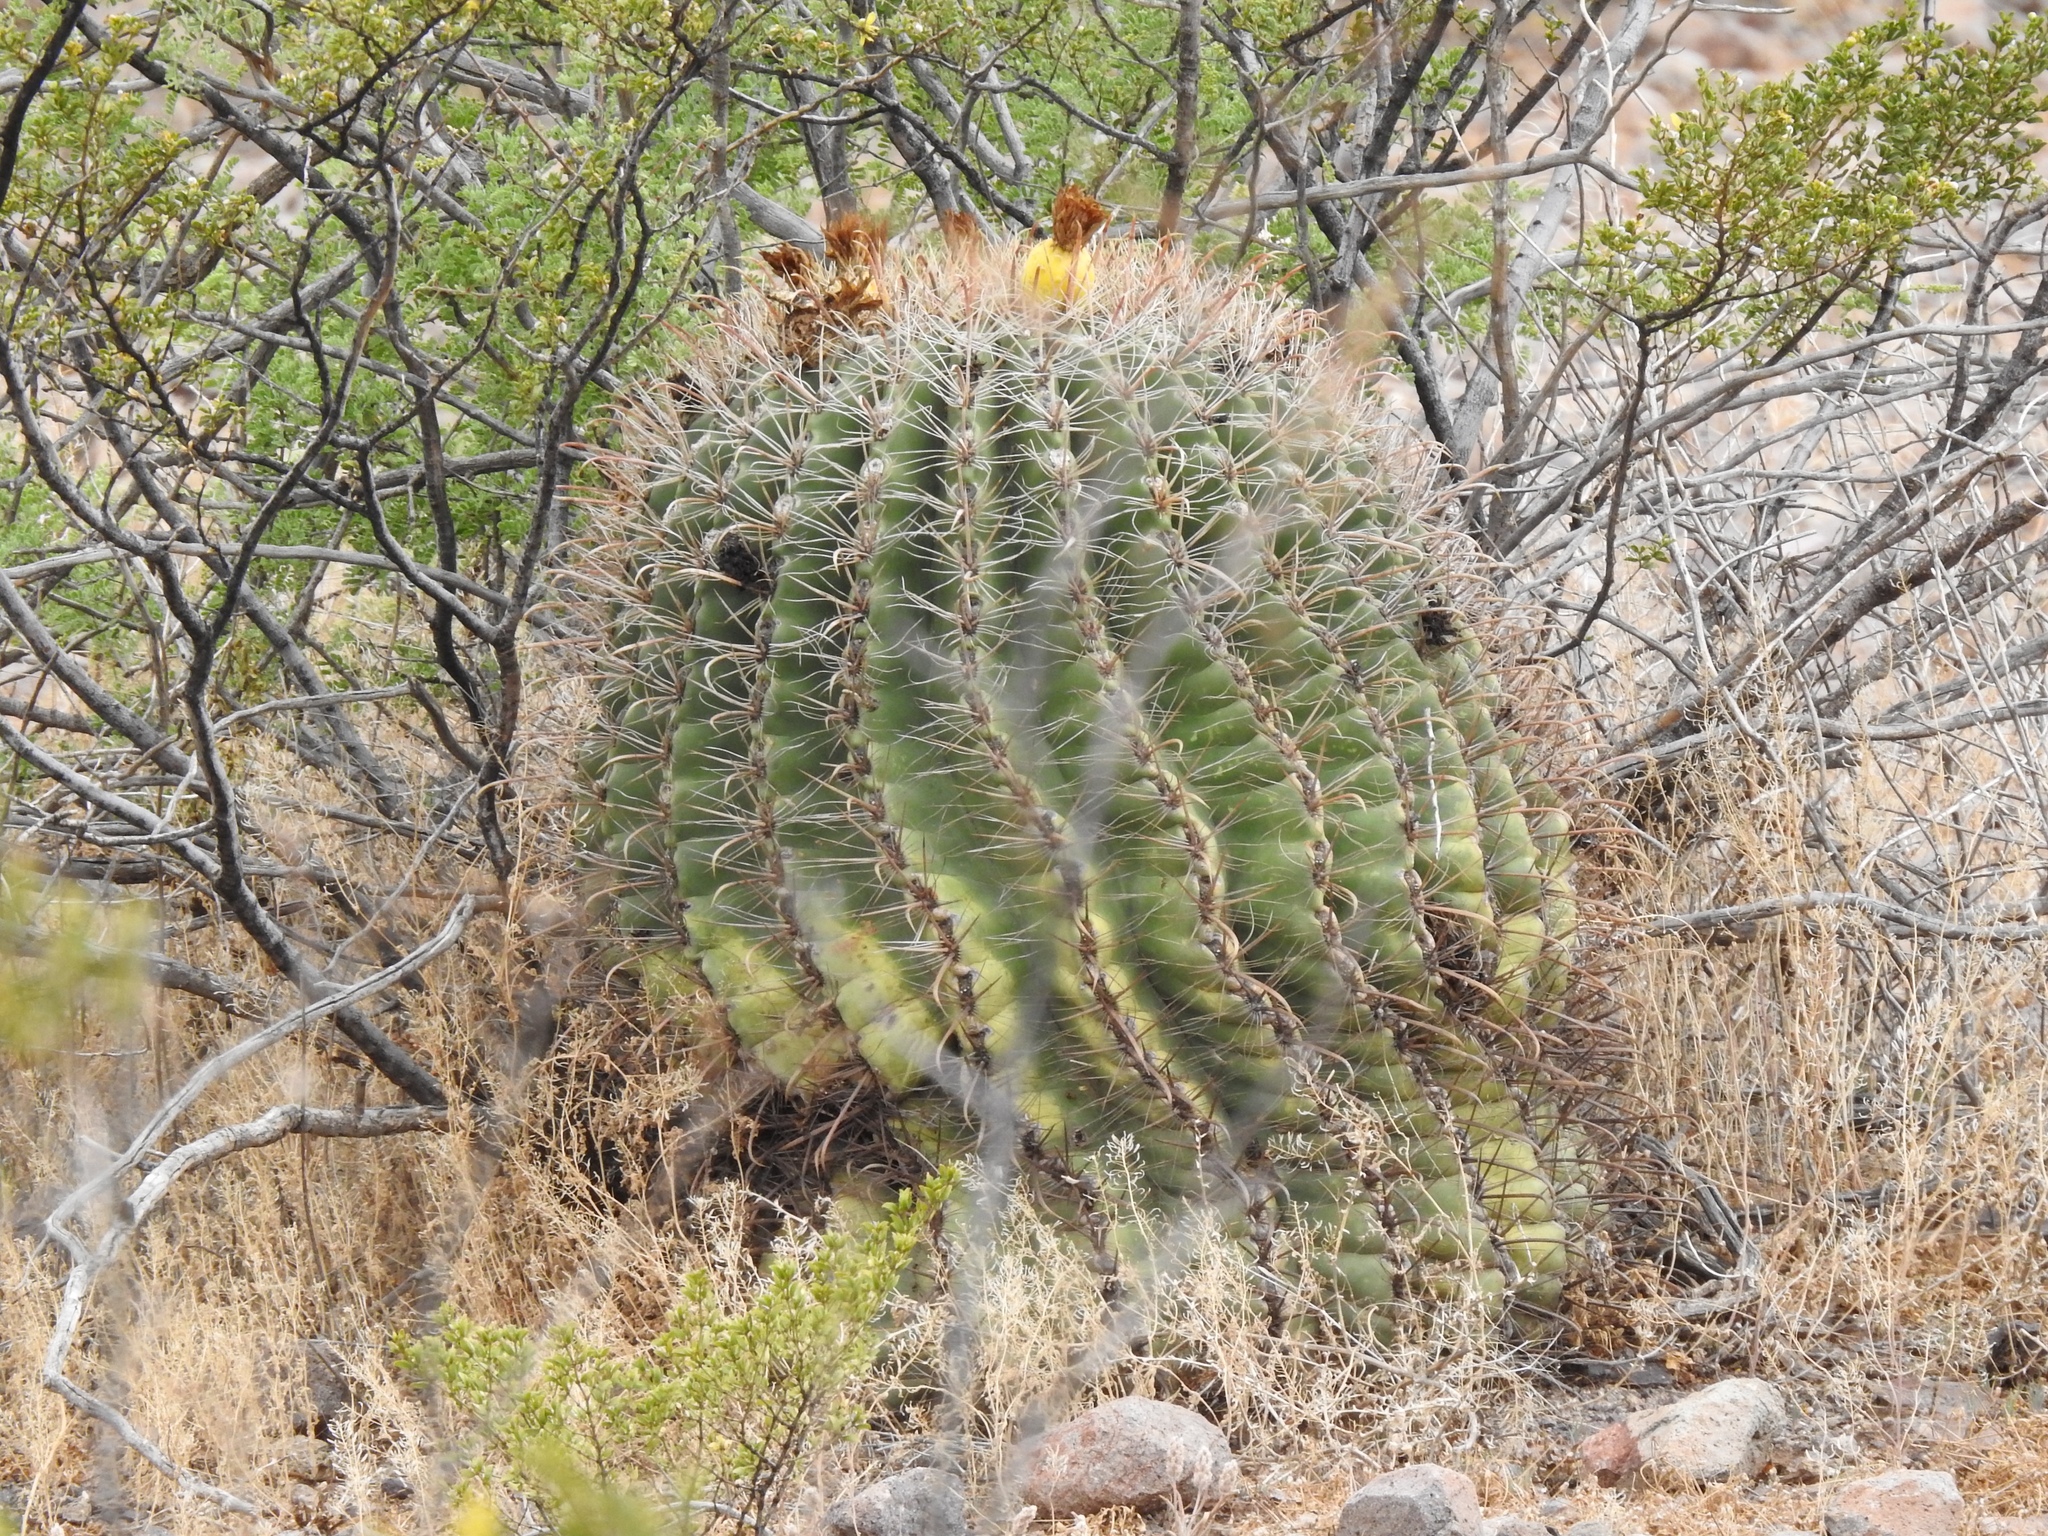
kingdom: Plantae
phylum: Tracheophyta
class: Magnoliopsida
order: Caryophyllales
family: Cactaceae
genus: Ferocactus
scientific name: Ferocactus wislizeni
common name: Candy barrel cactus
